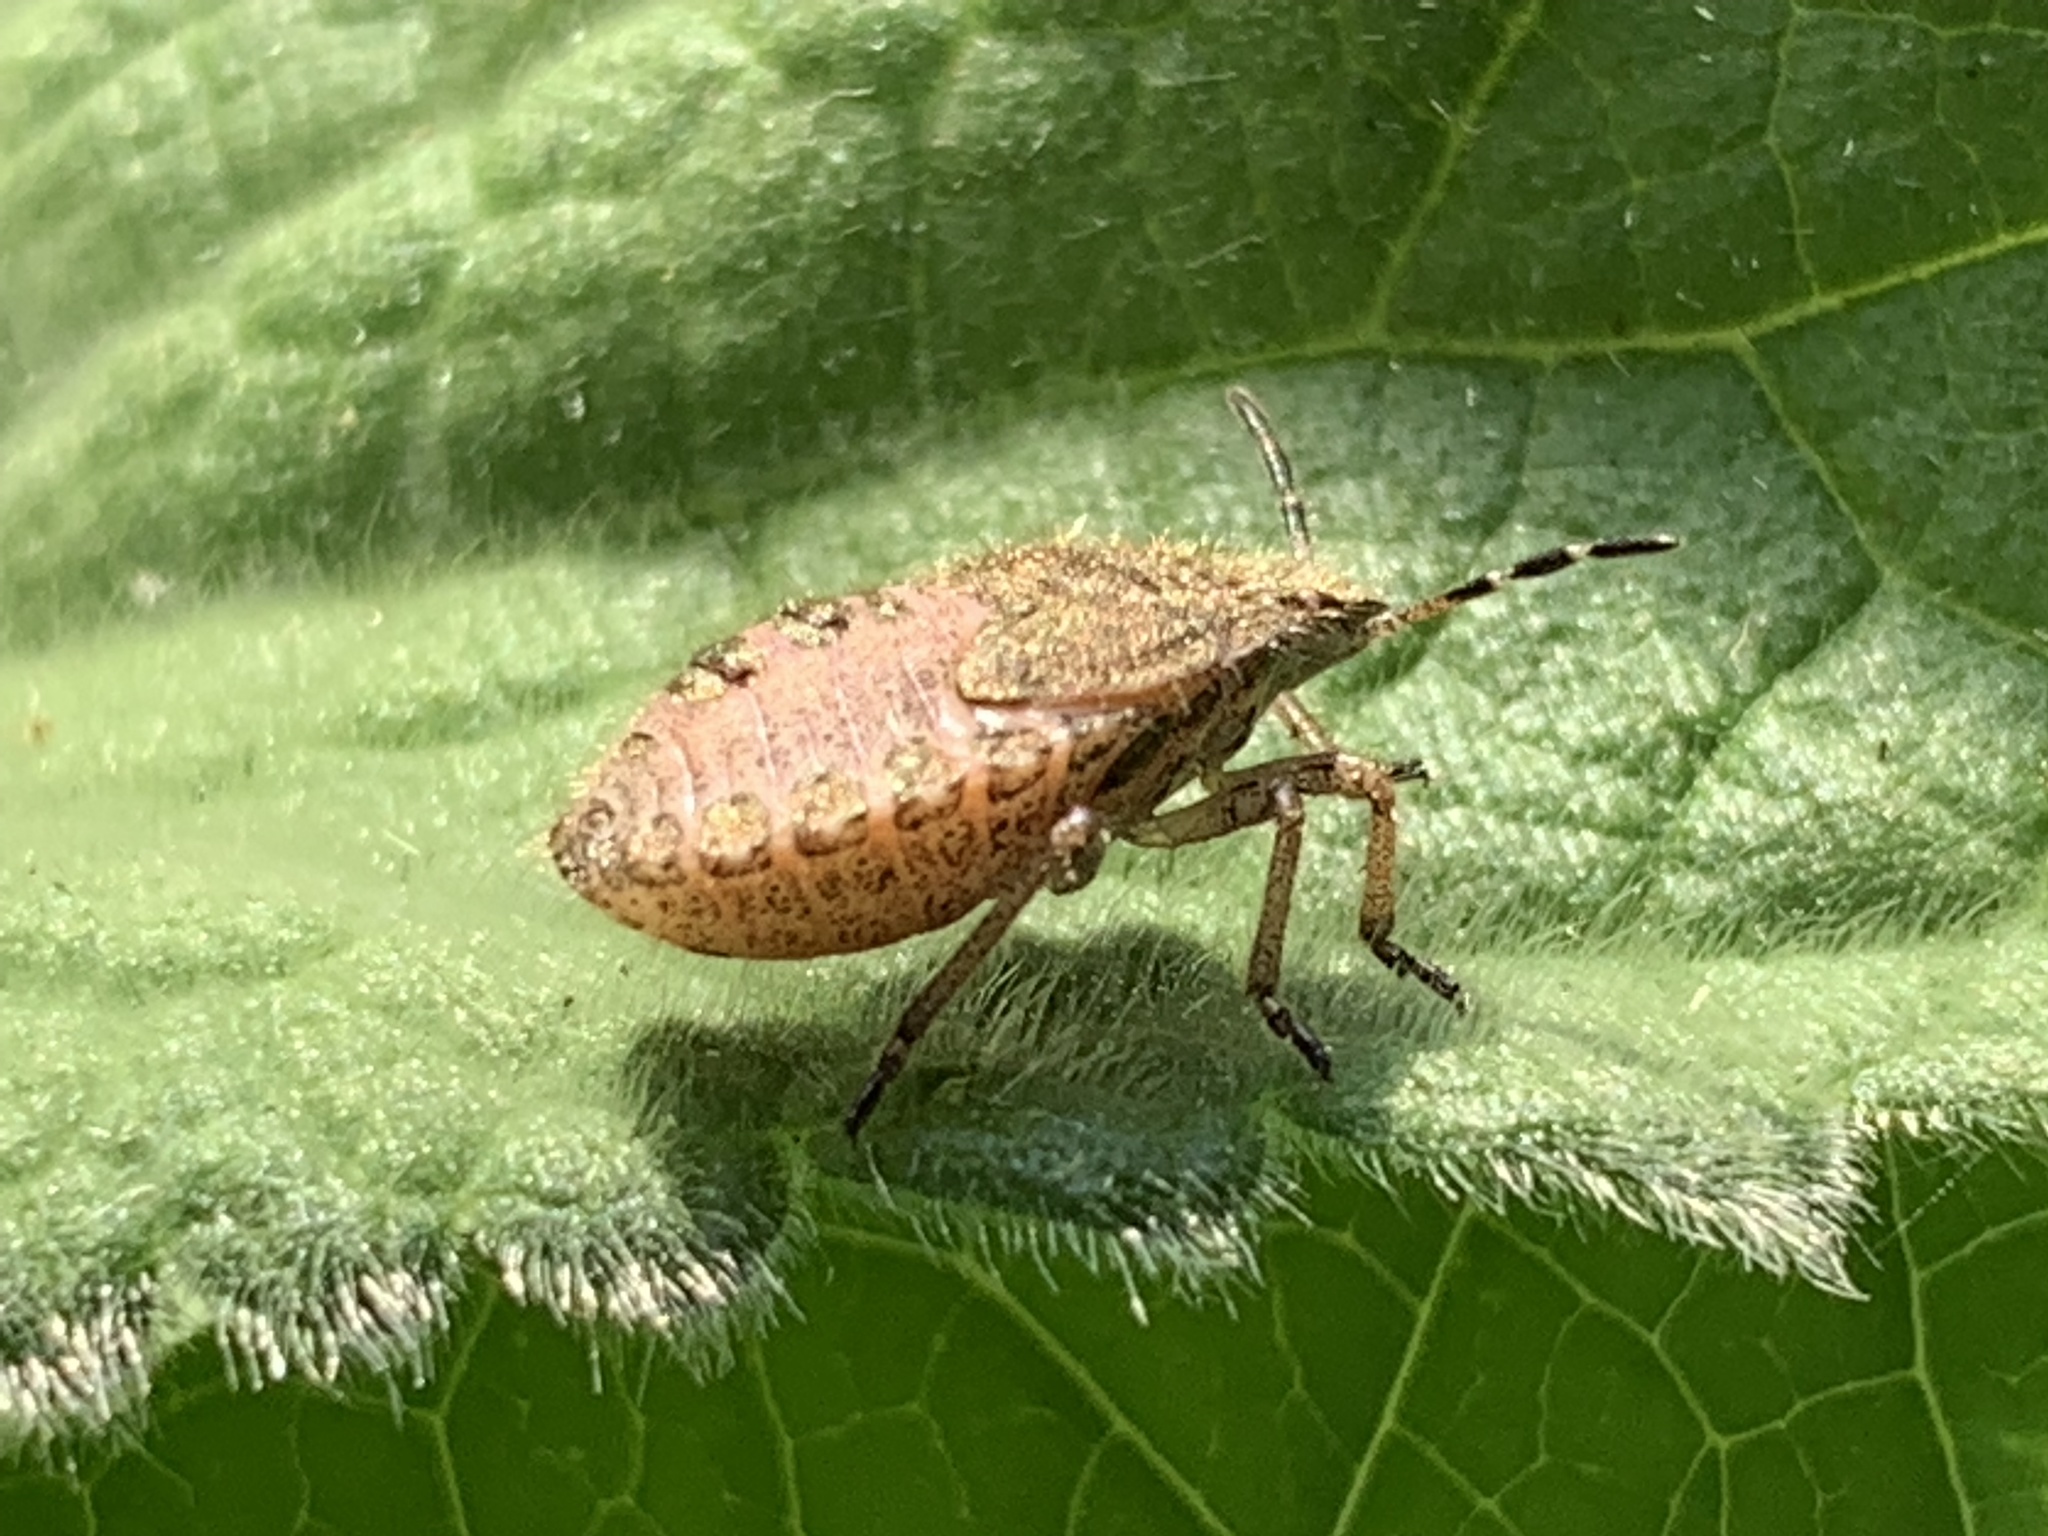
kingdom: Animalia
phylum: Arthropoda
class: Insecta
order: Hemiptera
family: Pentatomidae
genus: Dolycoris
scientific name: Dolycoris baccarum
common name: Sloe bug
